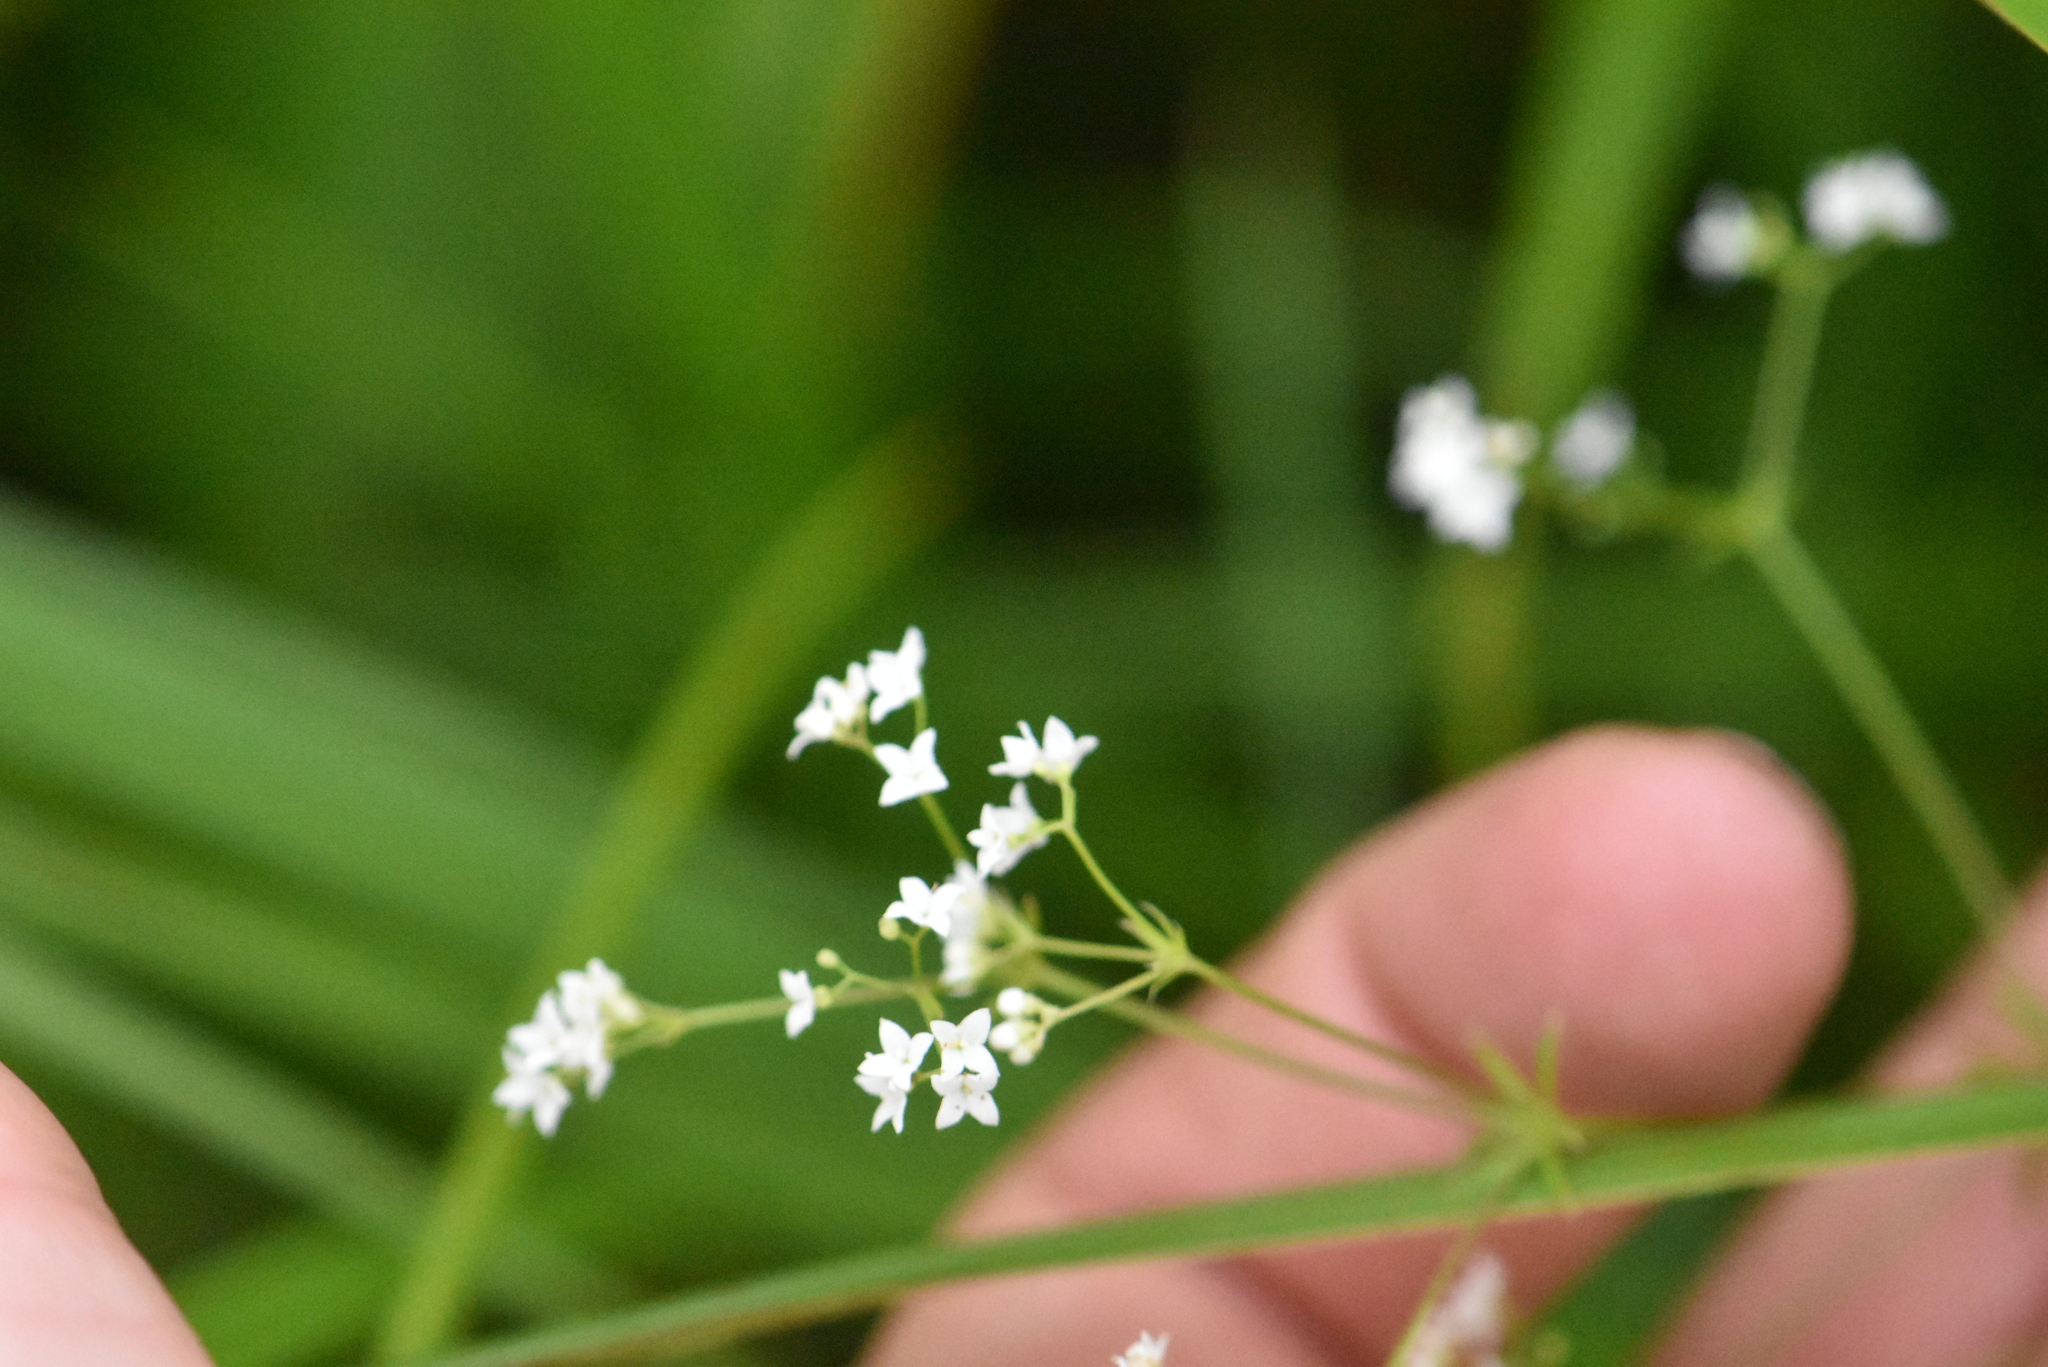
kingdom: Plantae
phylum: Tracheophyta
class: Magnoliopsida
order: Gentianales
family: Rubiaceae
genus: Galium
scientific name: Galium uliginosum
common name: Fen bedstraw
